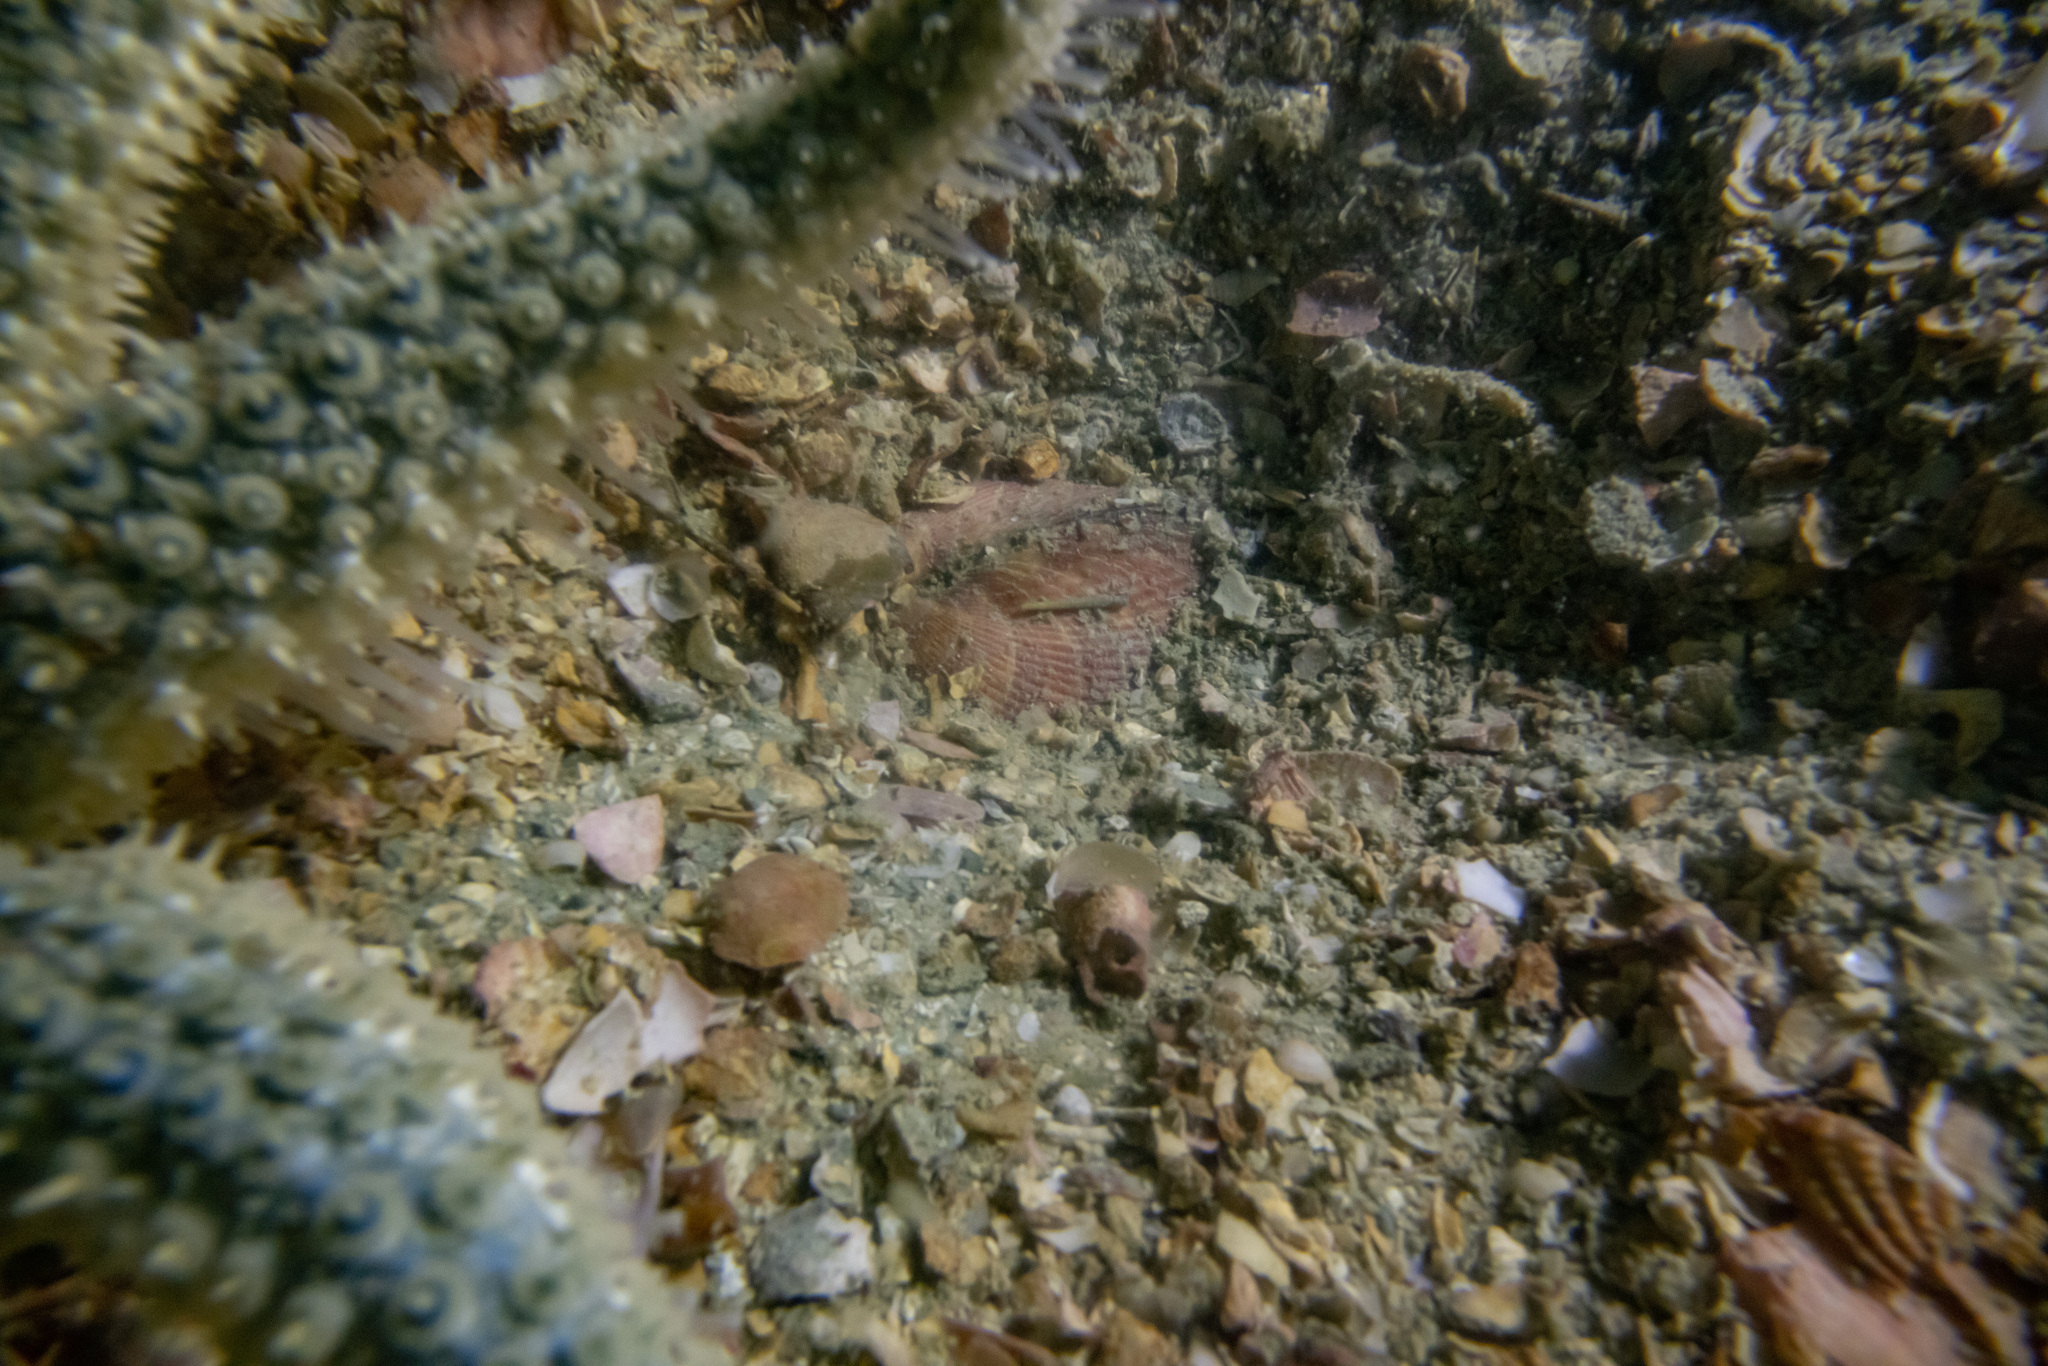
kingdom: Animalia
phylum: Mollusca
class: Bivalvia
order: Arcida
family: Glycymerididae
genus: Tucetona
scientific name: Tucetona laticostata
